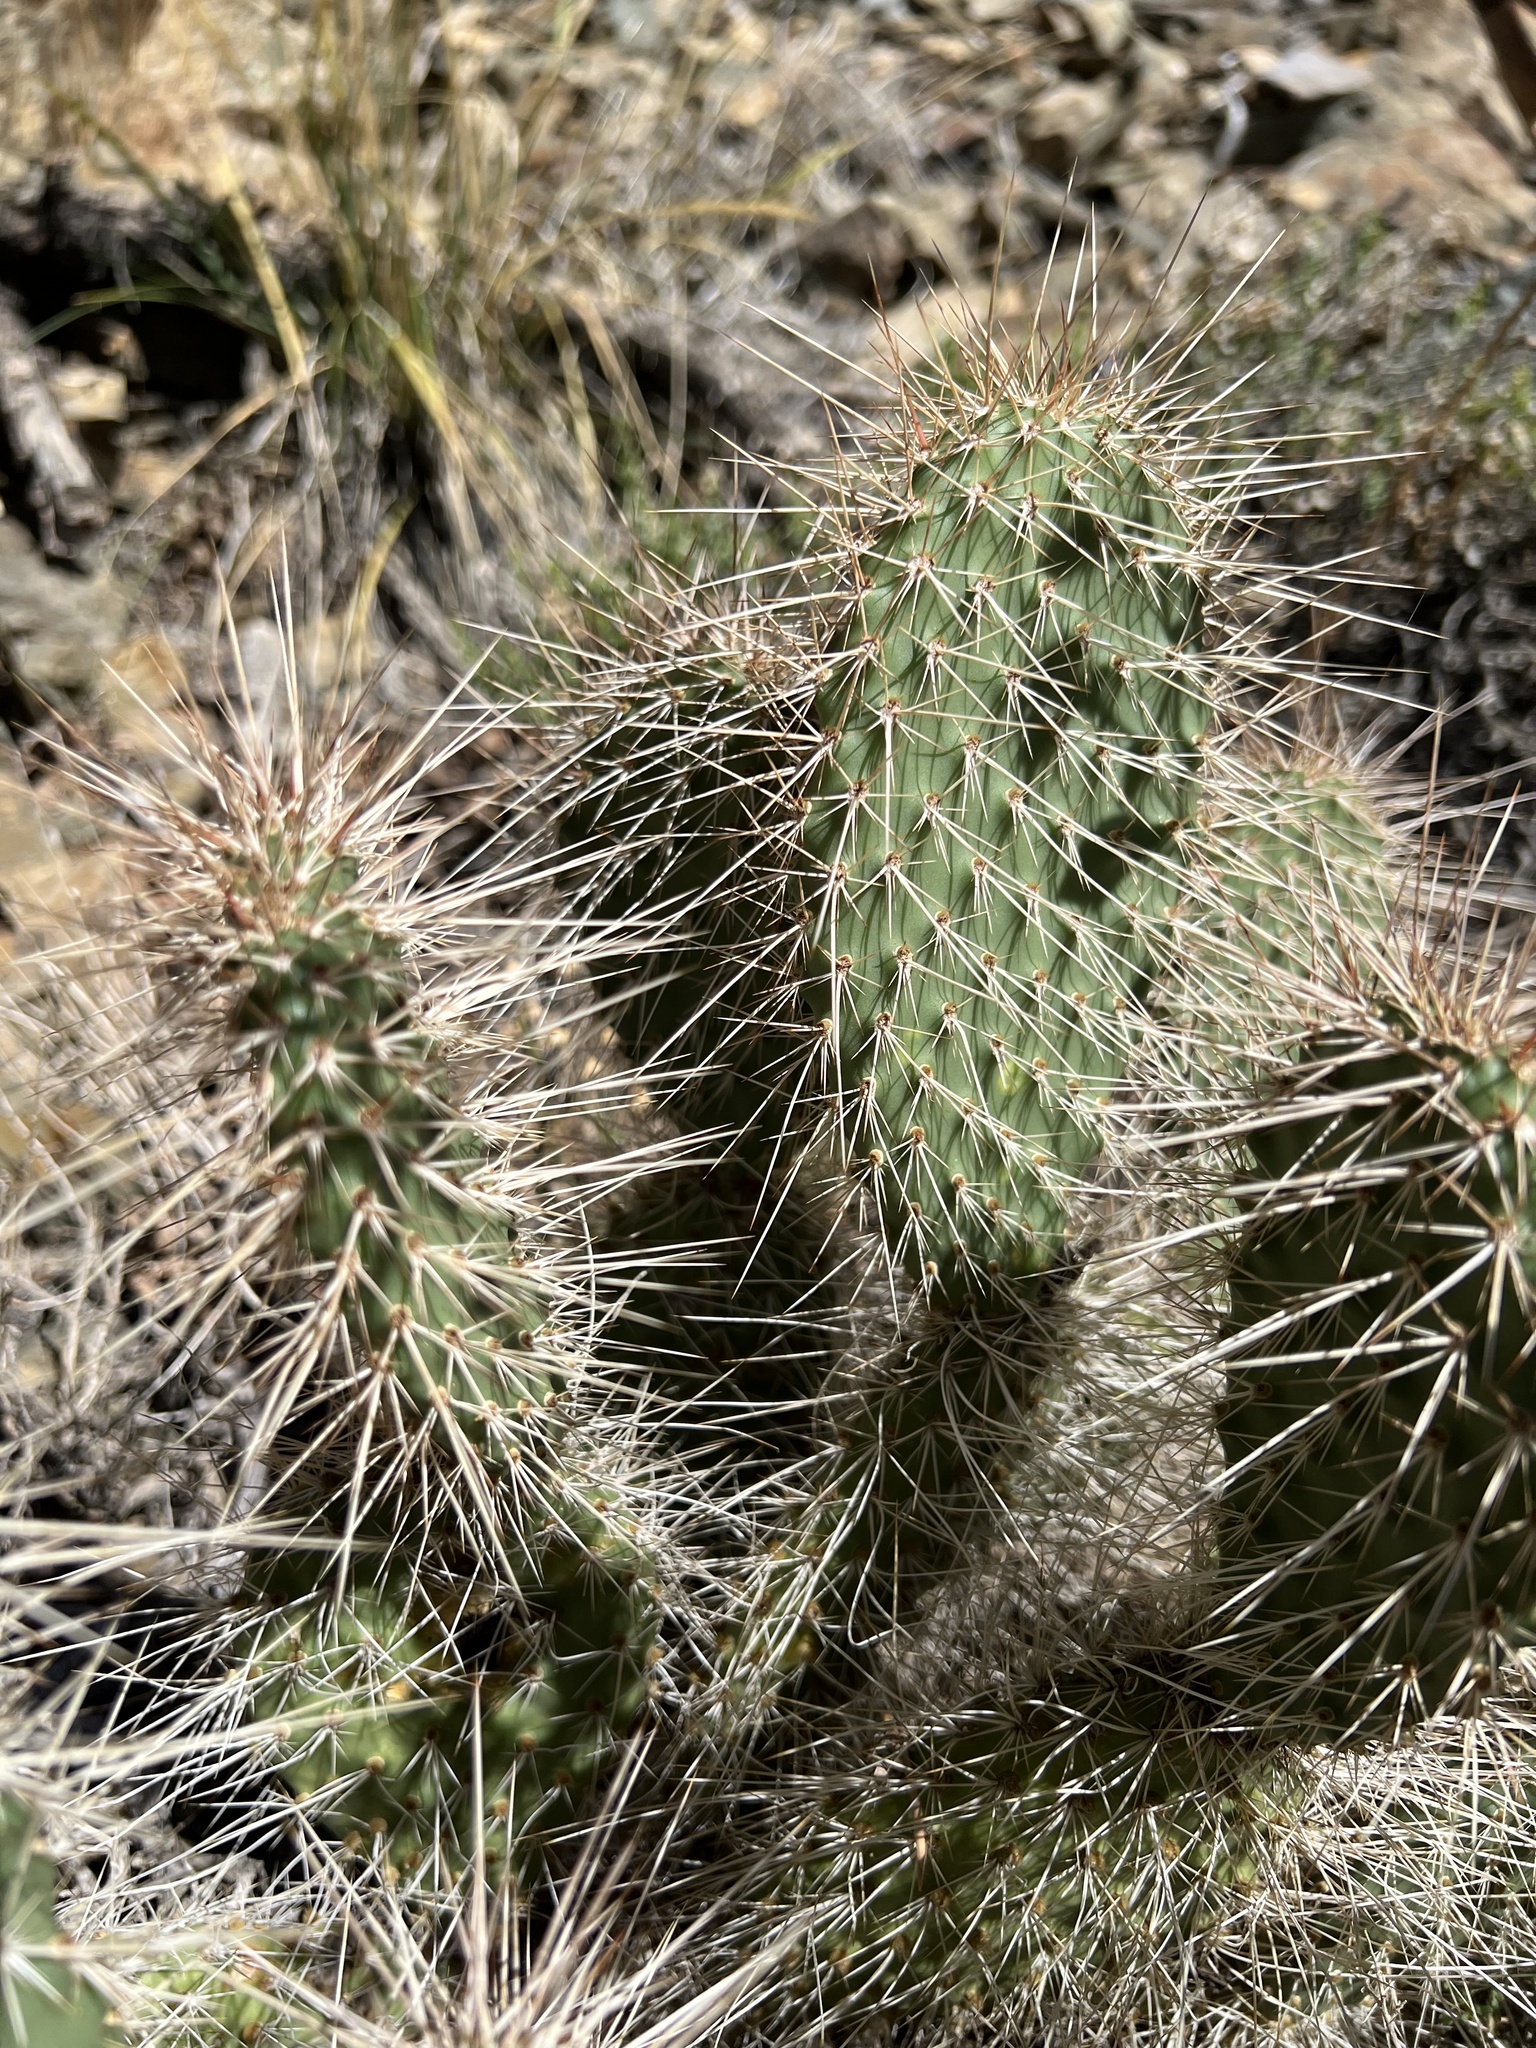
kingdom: Plantae
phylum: Tracheophyta
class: Magnoliopsida
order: Caryophyllales
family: Cactaceae
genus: Opuntia
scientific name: Opuntia polyacantha
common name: Plains prickly-pear
